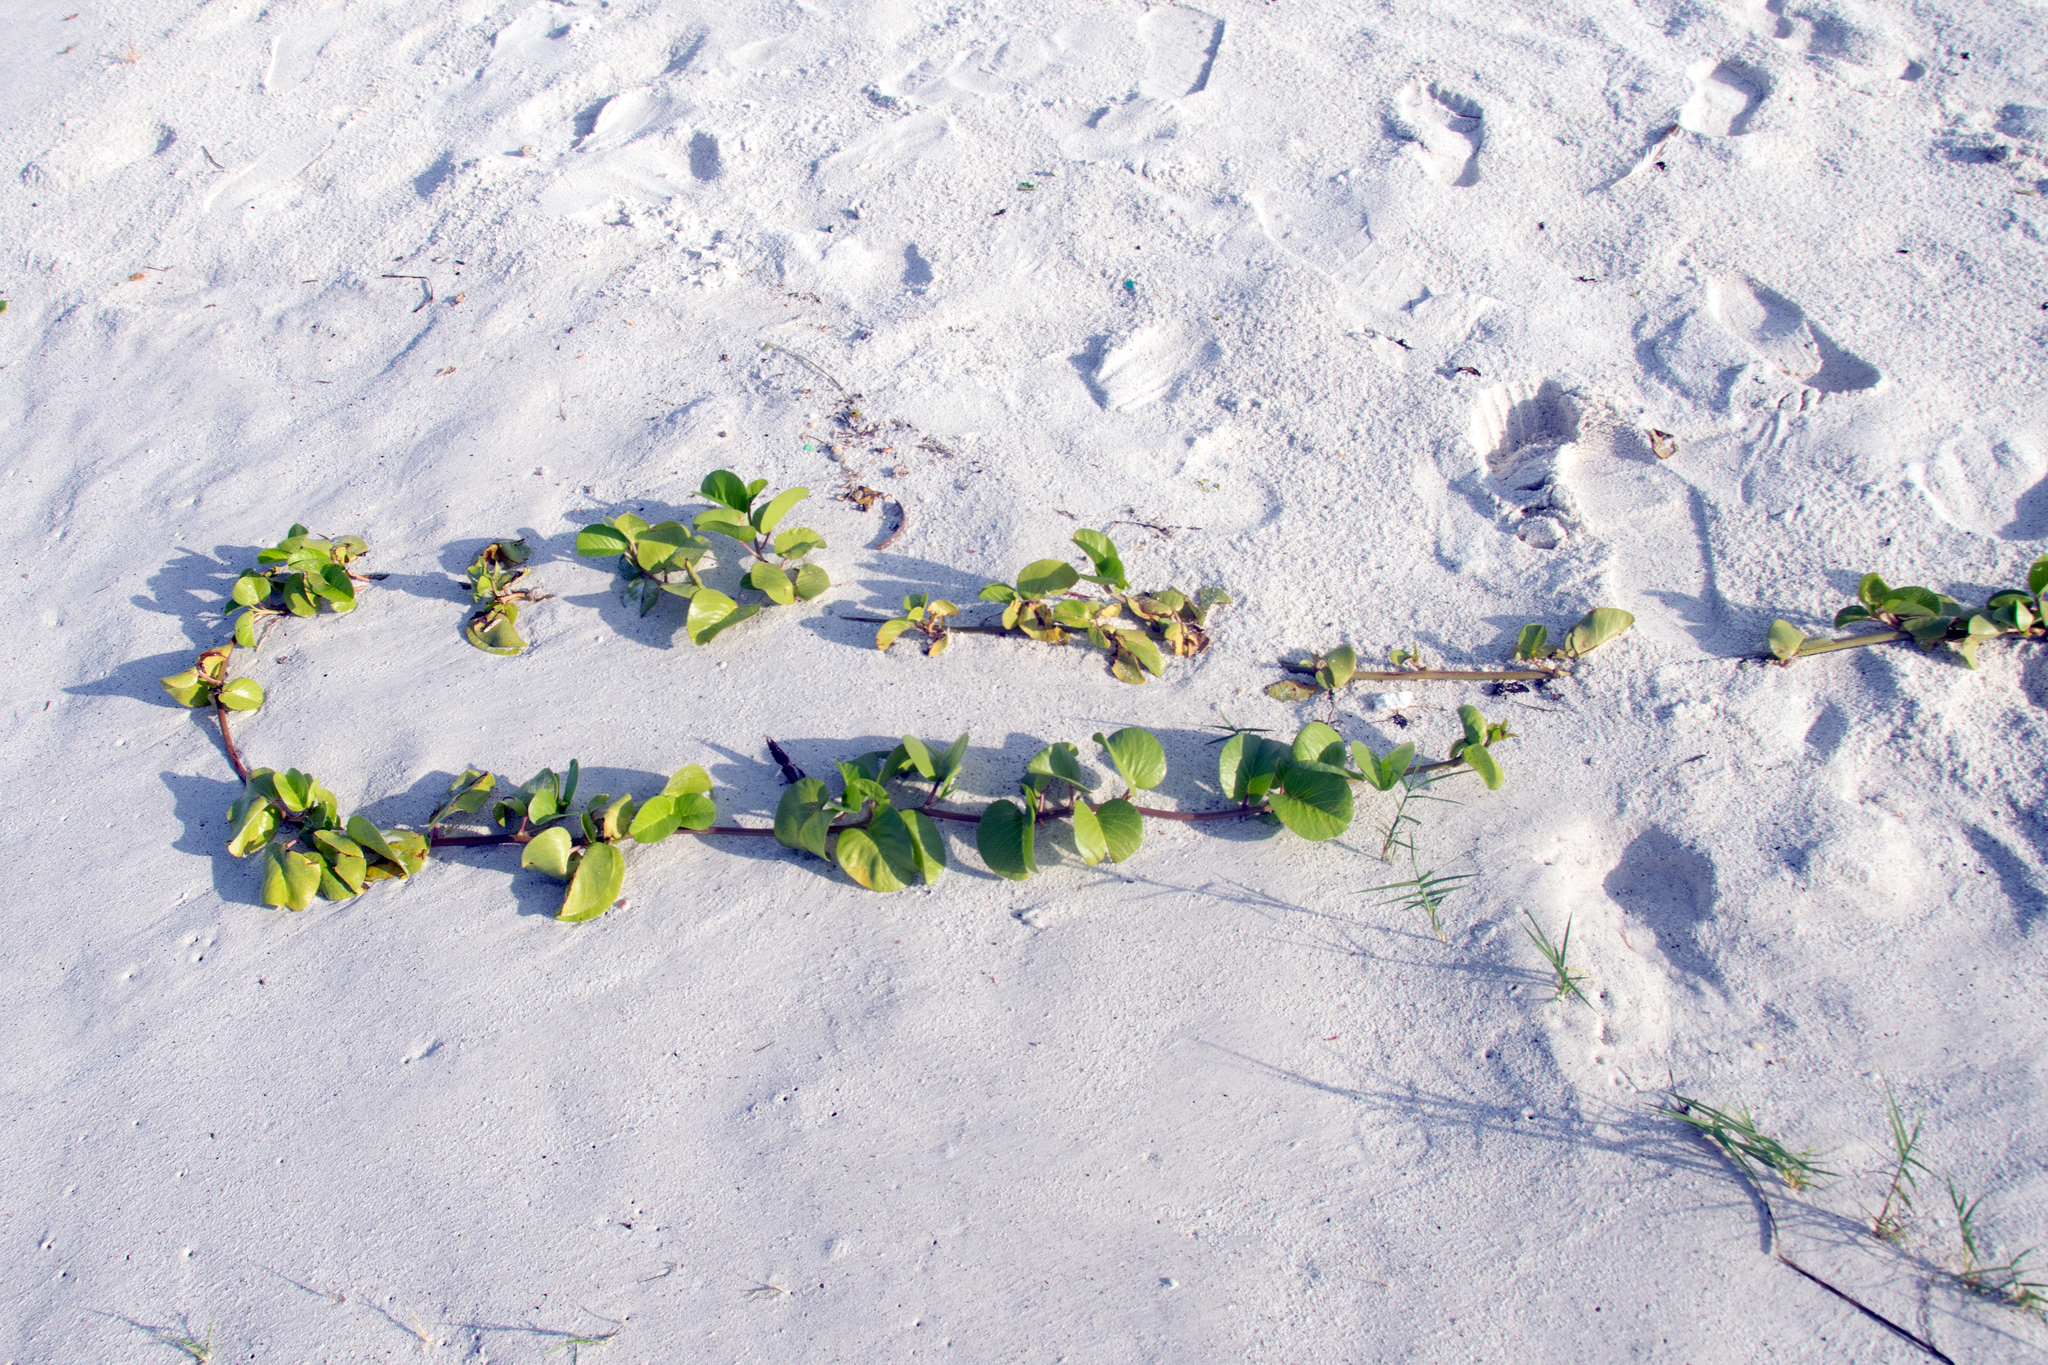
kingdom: Plantae
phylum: Tracheophyta
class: Magnoliopsida
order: Solanales
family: Convolvulaceae
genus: Ipomoea
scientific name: Ipomoea pes-caprae
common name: Beach morning glory
